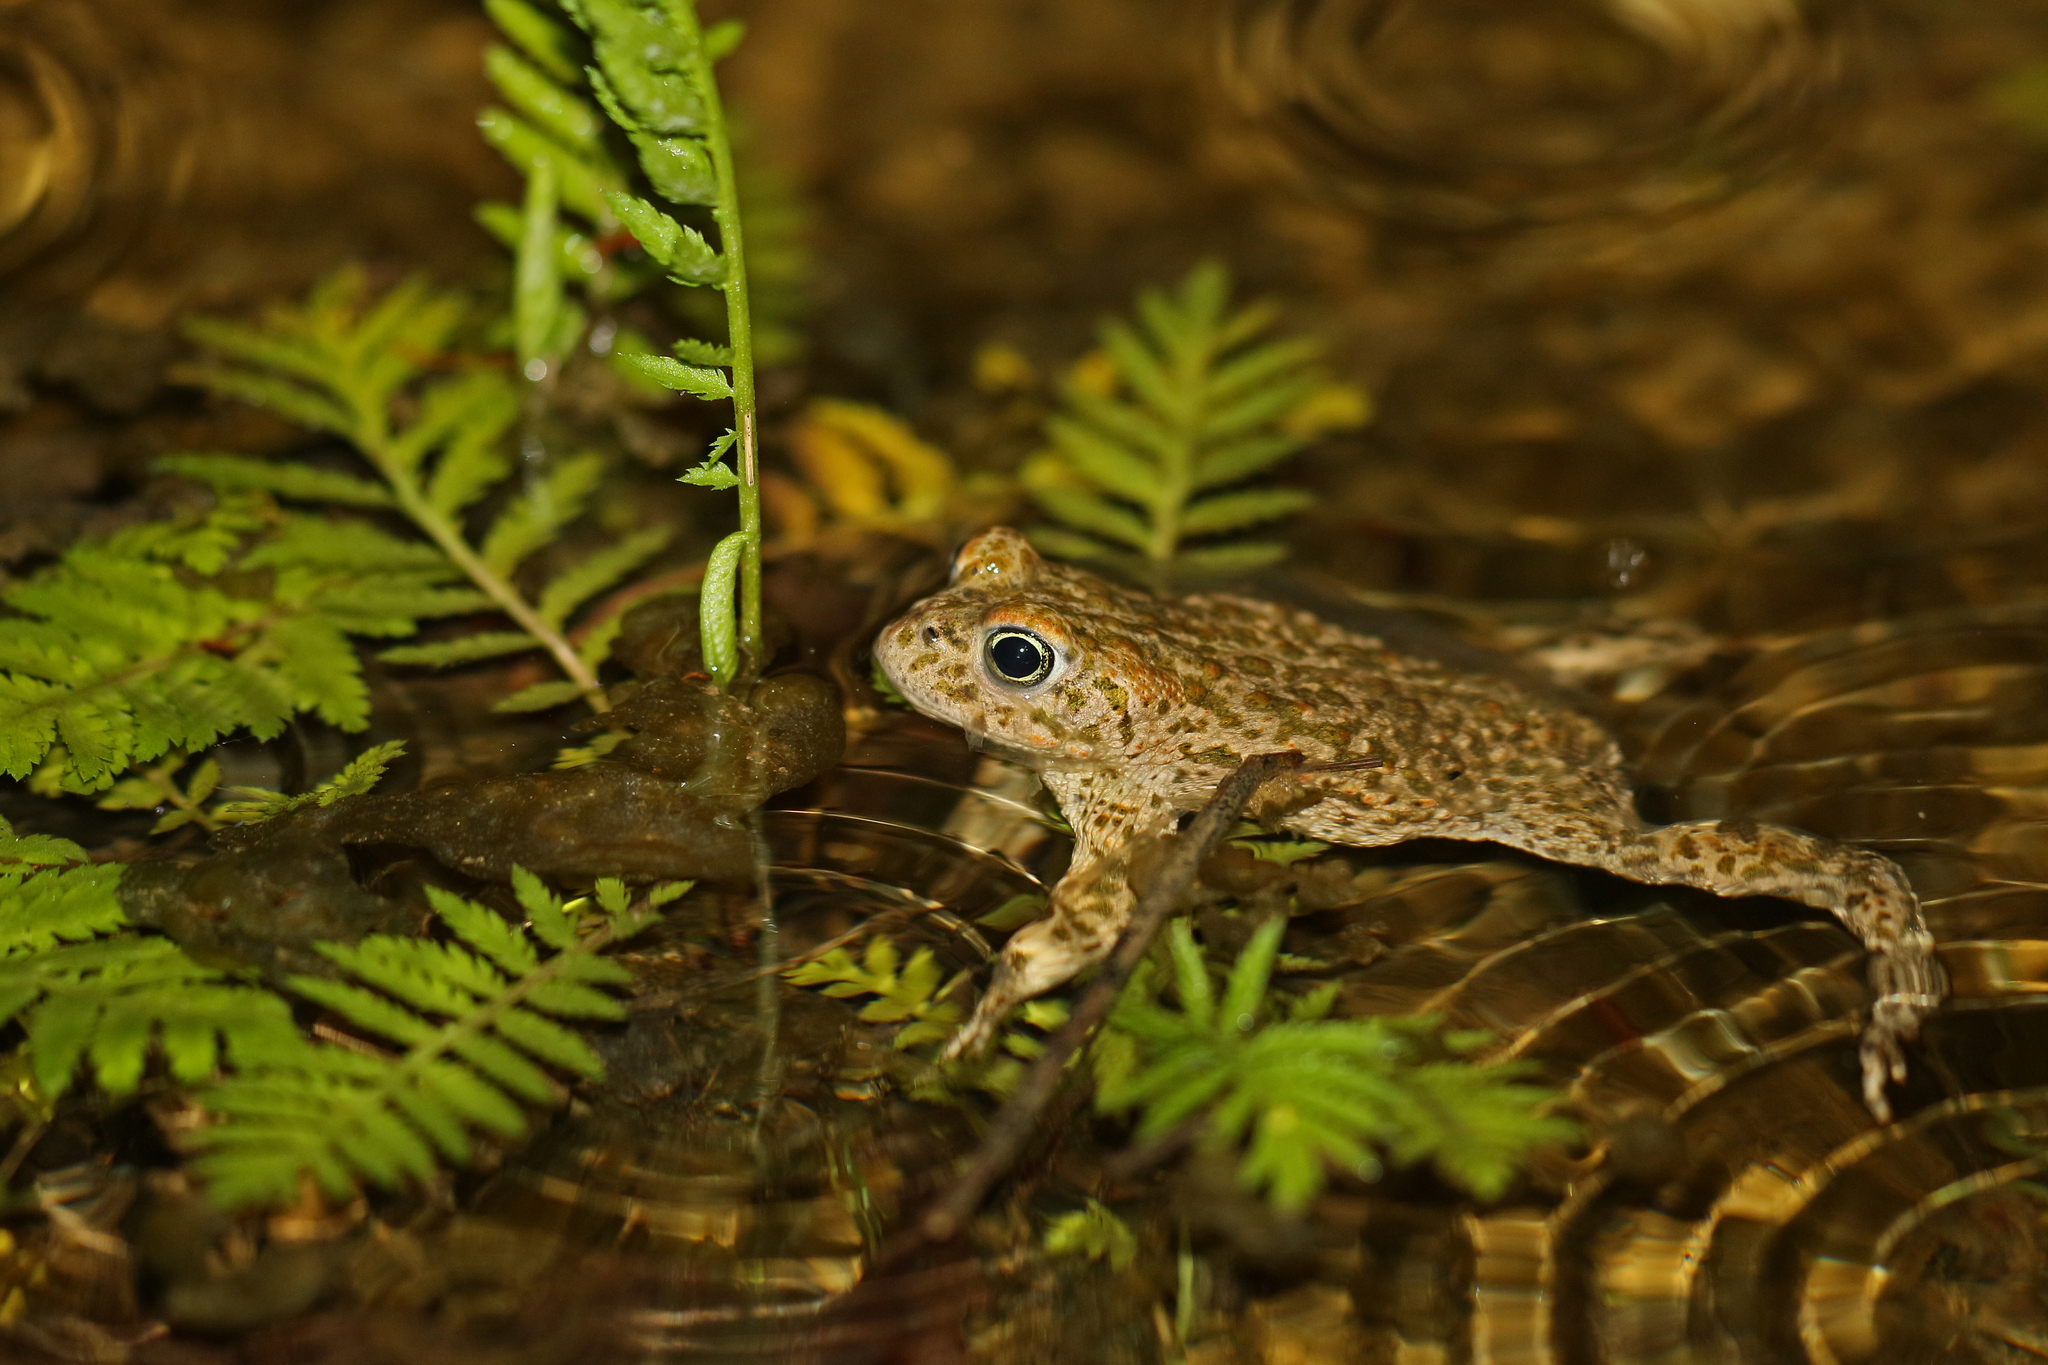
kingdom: Animalia
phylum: Chordata
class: Amphibia
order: Anura
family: Bufonidae
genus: Epidalea
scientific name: Epidalea calamita
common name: Natterjack toad
